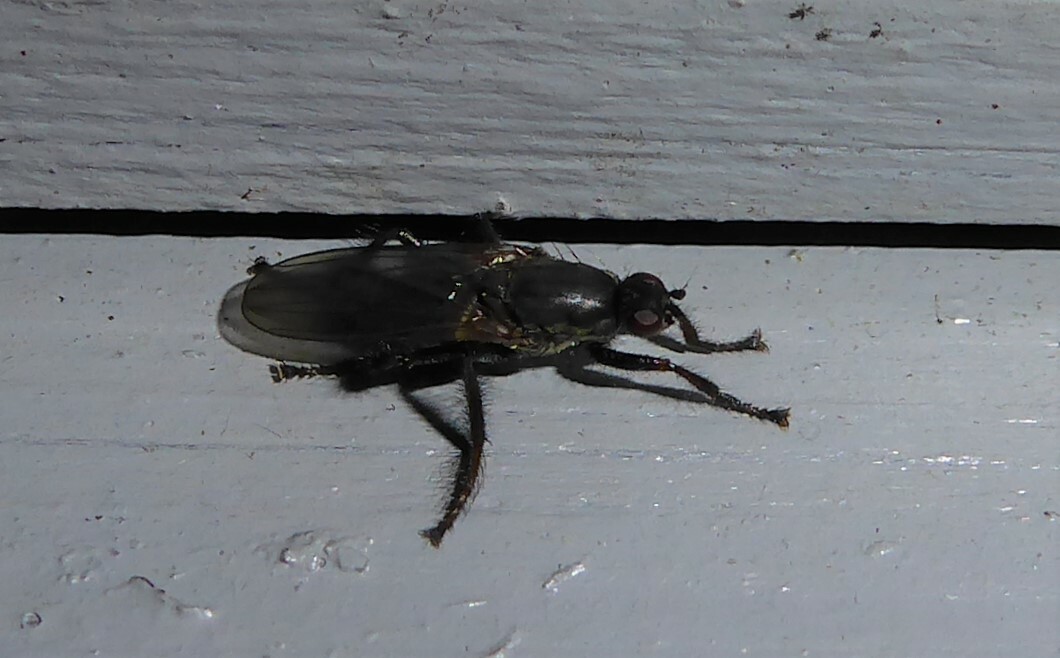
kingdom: Animalia
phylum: Arthropoda
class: Insecta
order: Diptera
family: Coelopidae
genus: Chaetocoelopa
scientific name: Chaetocoelopa littoralis
